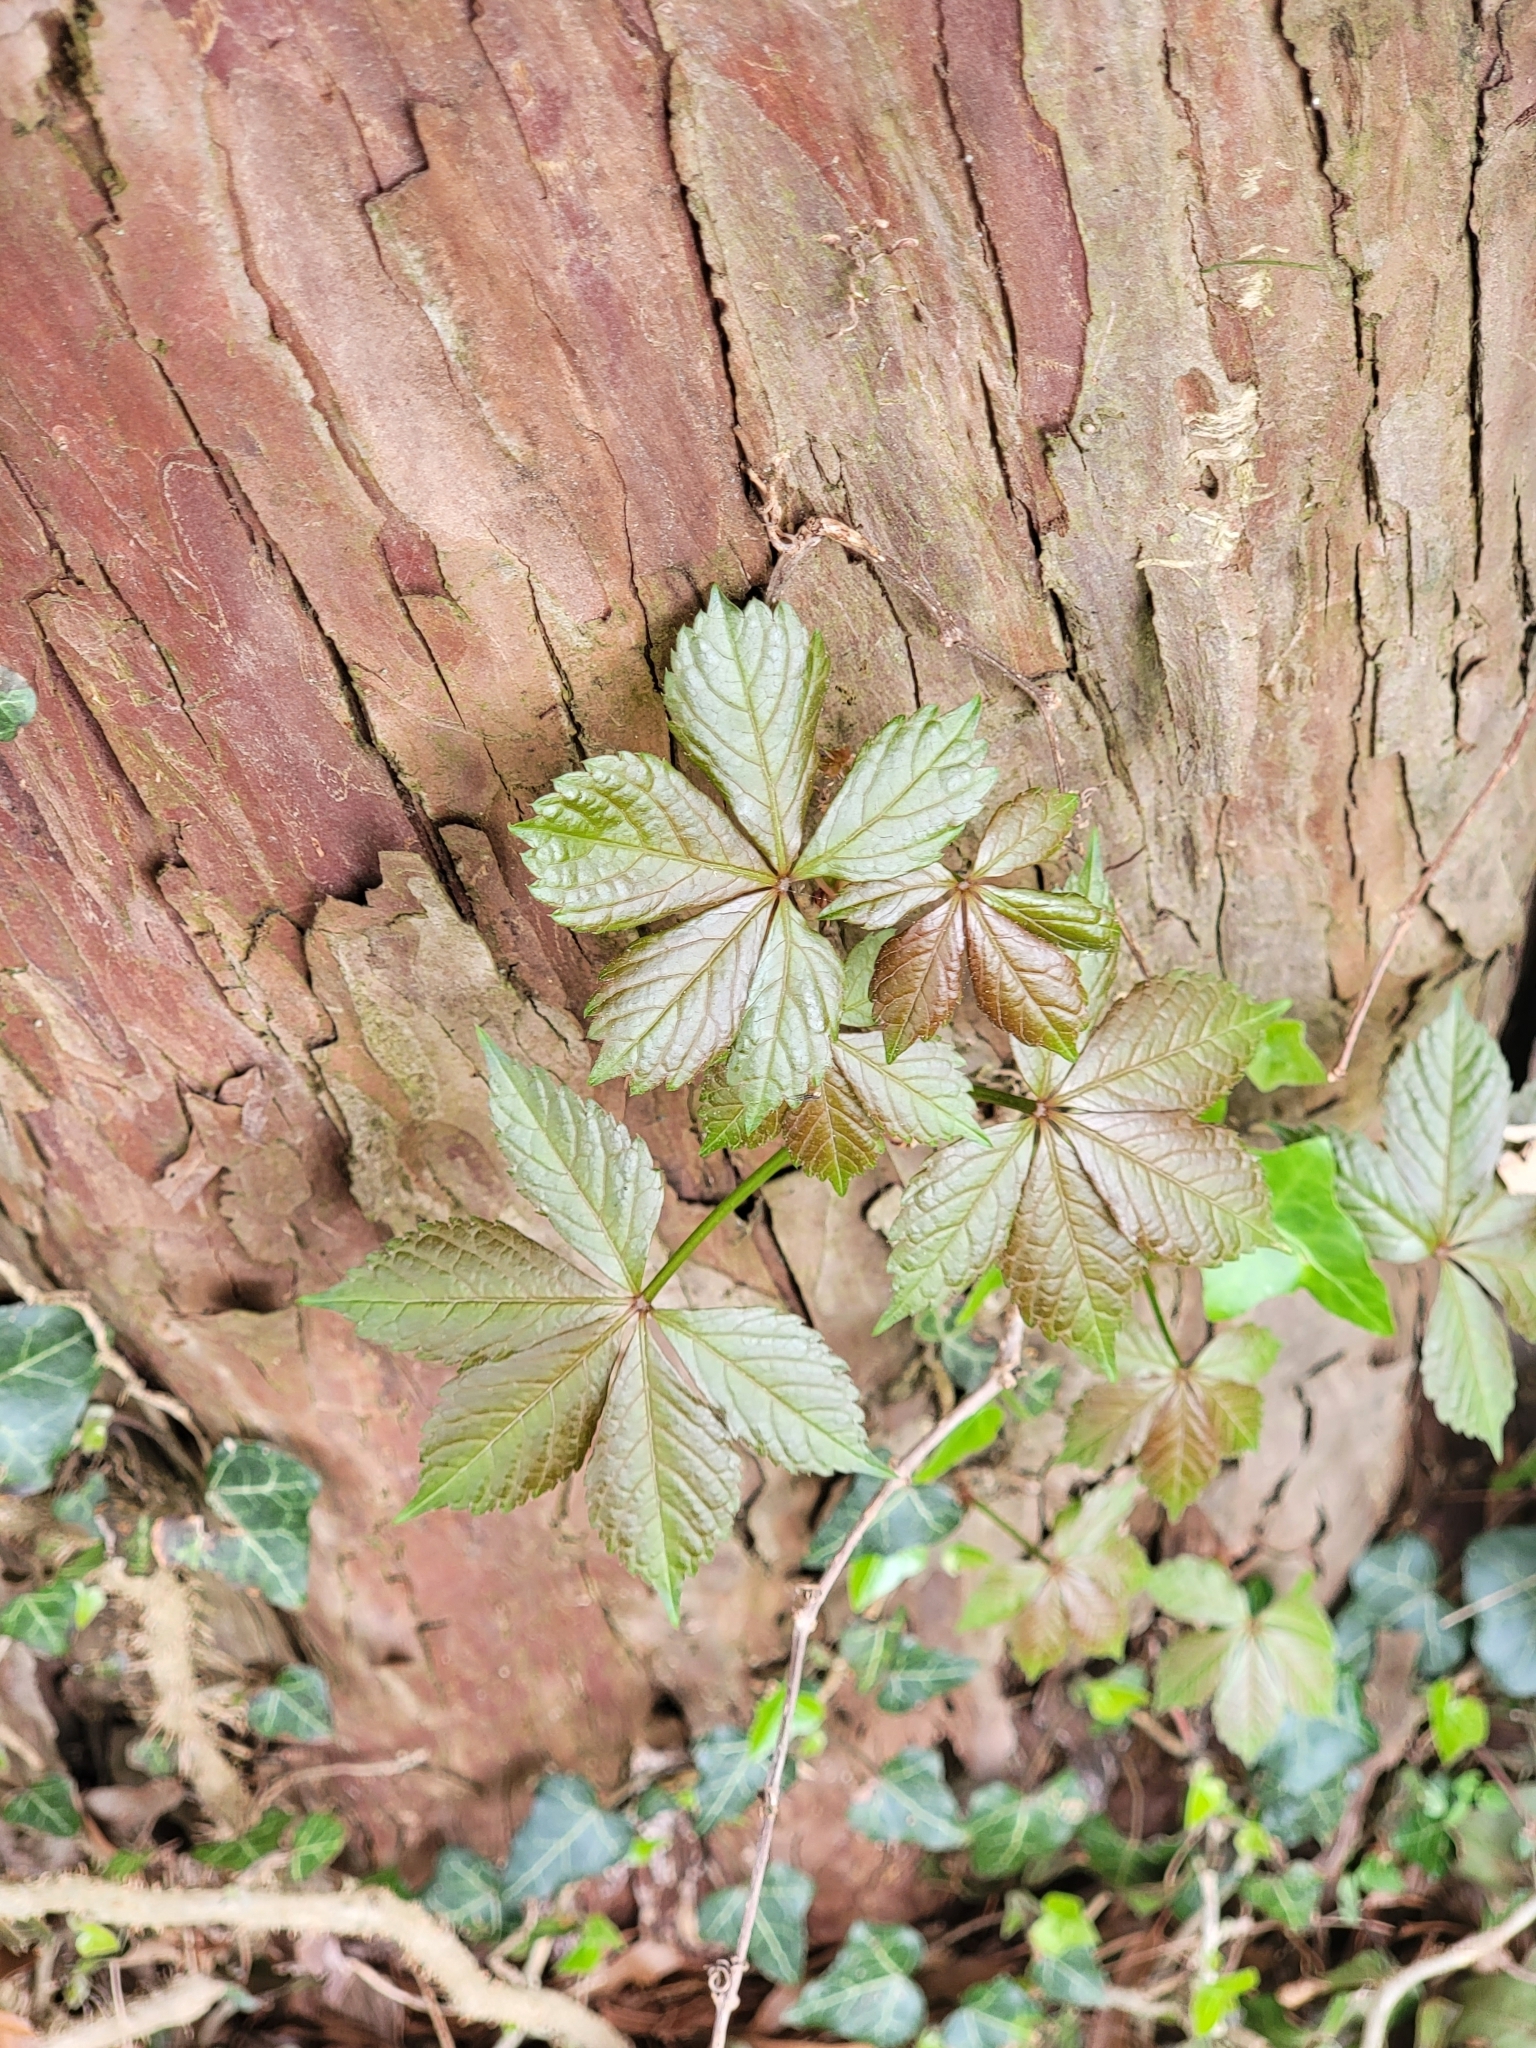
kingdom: Plantae
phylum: Tracheophyta
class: Magnoliopsida
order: Vitales
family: Vitaceae
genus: Parthenocissus
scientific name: Parthenocissus quinquefolia
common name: Virginia-creeper
